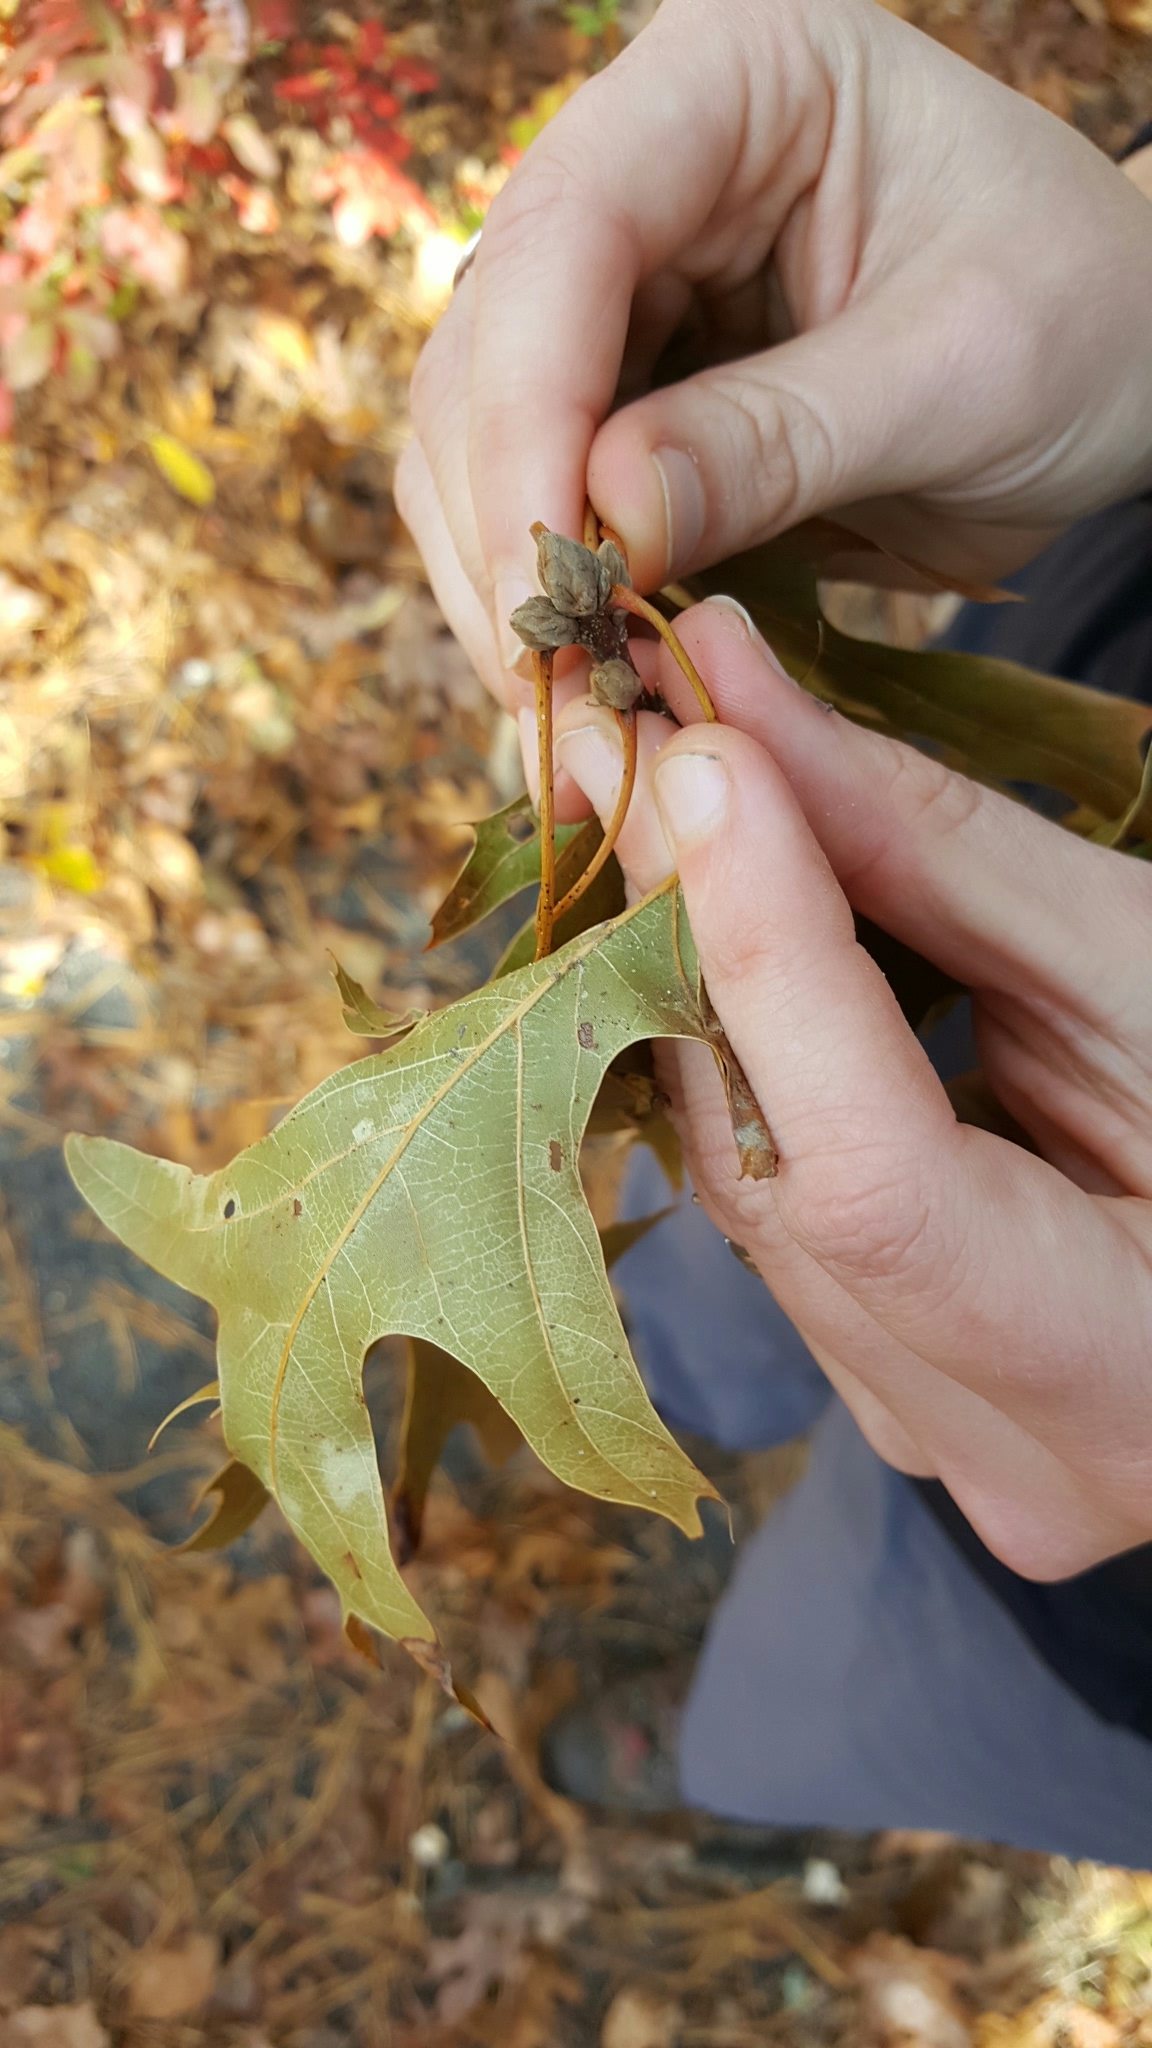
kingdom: Plantae
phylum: Tracheophyta
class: Magnoliopsida
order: Fagales
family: Fagaceae
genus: Quercus
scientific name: Quercus velutina
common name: Black oak
